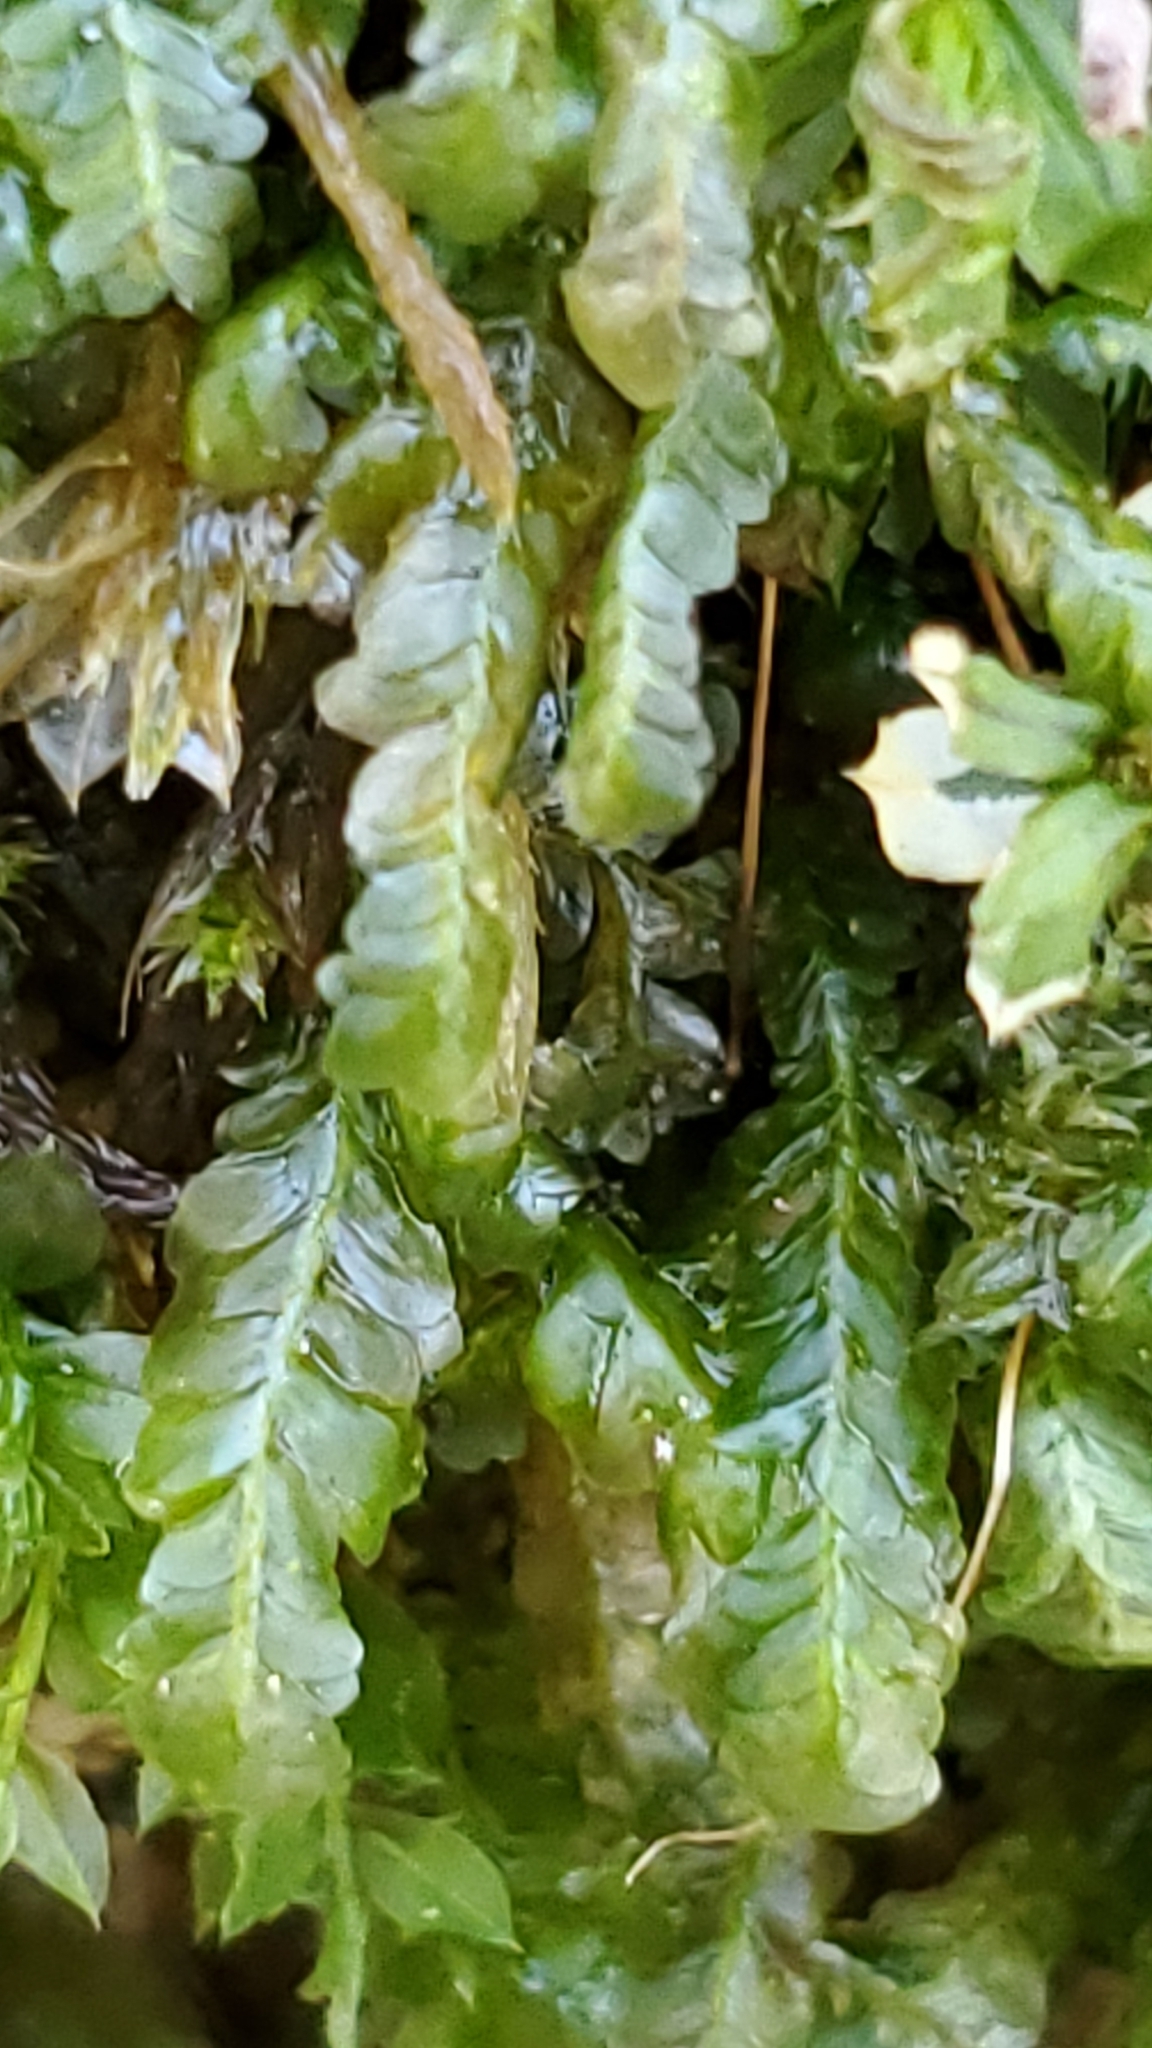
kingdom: Plantae
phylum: Bryophyta
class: Bryopsida
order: Hypnales
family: Neckeraceae
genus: Homalia
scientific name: Homalia trichomanoides
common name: Lime homalia moss
